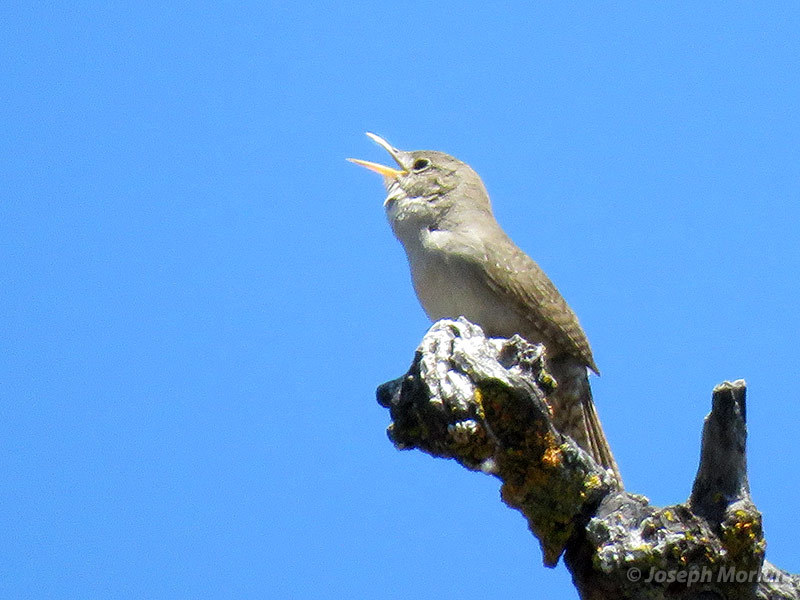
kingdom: Animalia
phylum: Chordata
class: Aves
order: Passeriformes
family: Troglodytidae
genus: Troglodytes
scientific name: Troglodytes aedon
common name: House wren
